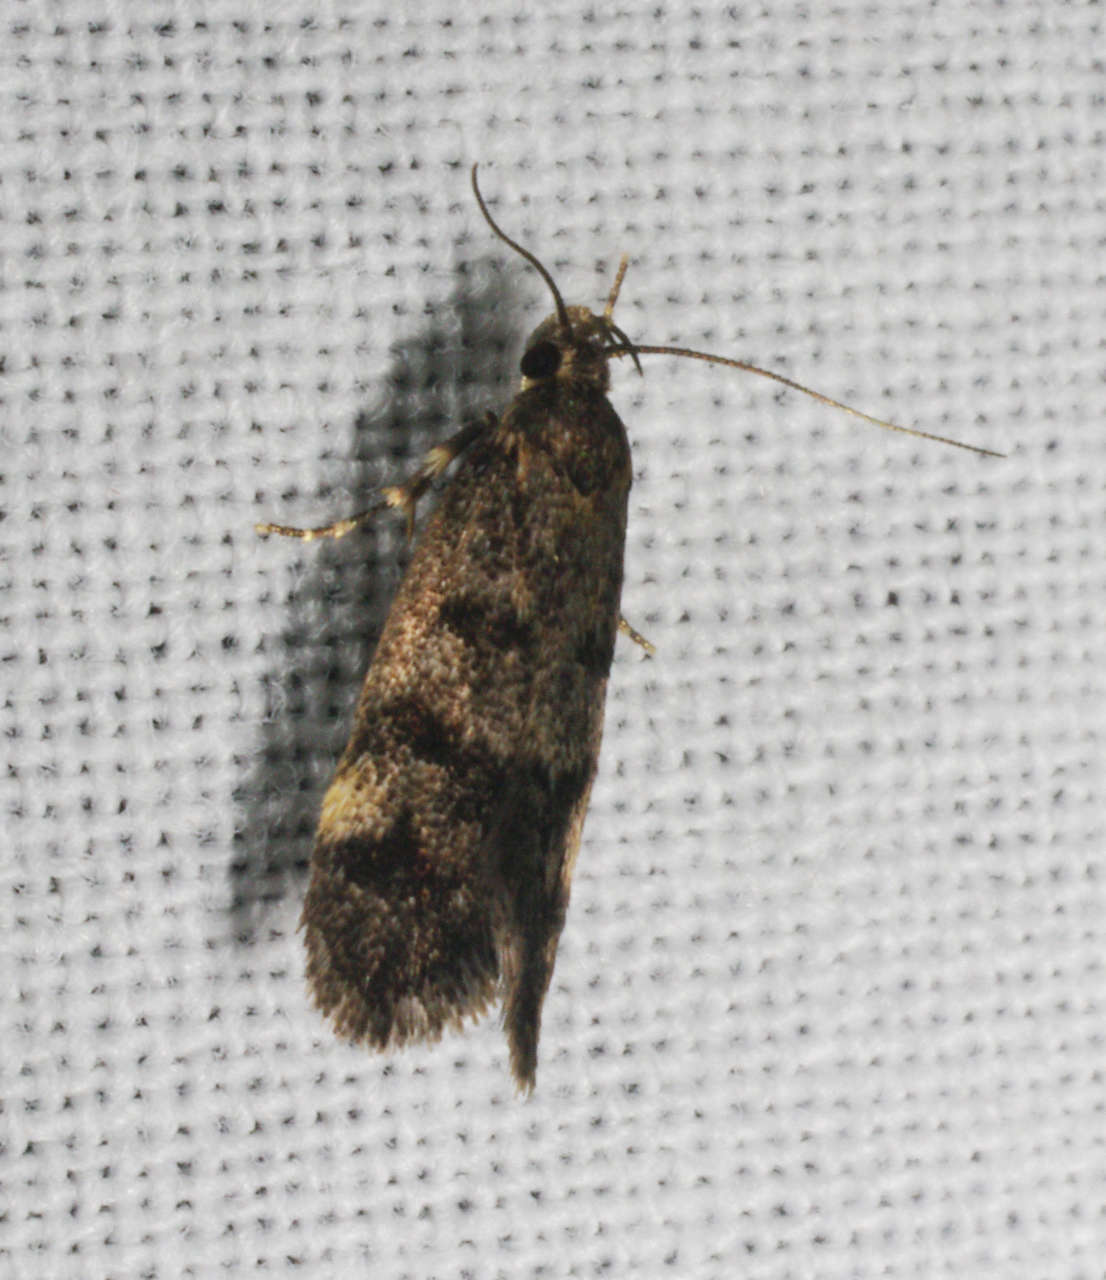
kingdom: Animalia
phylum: Arthropoda
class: Insecta
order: Lepidoptera
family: Oecophoridae
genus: Barea
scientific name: Barea subviridella
